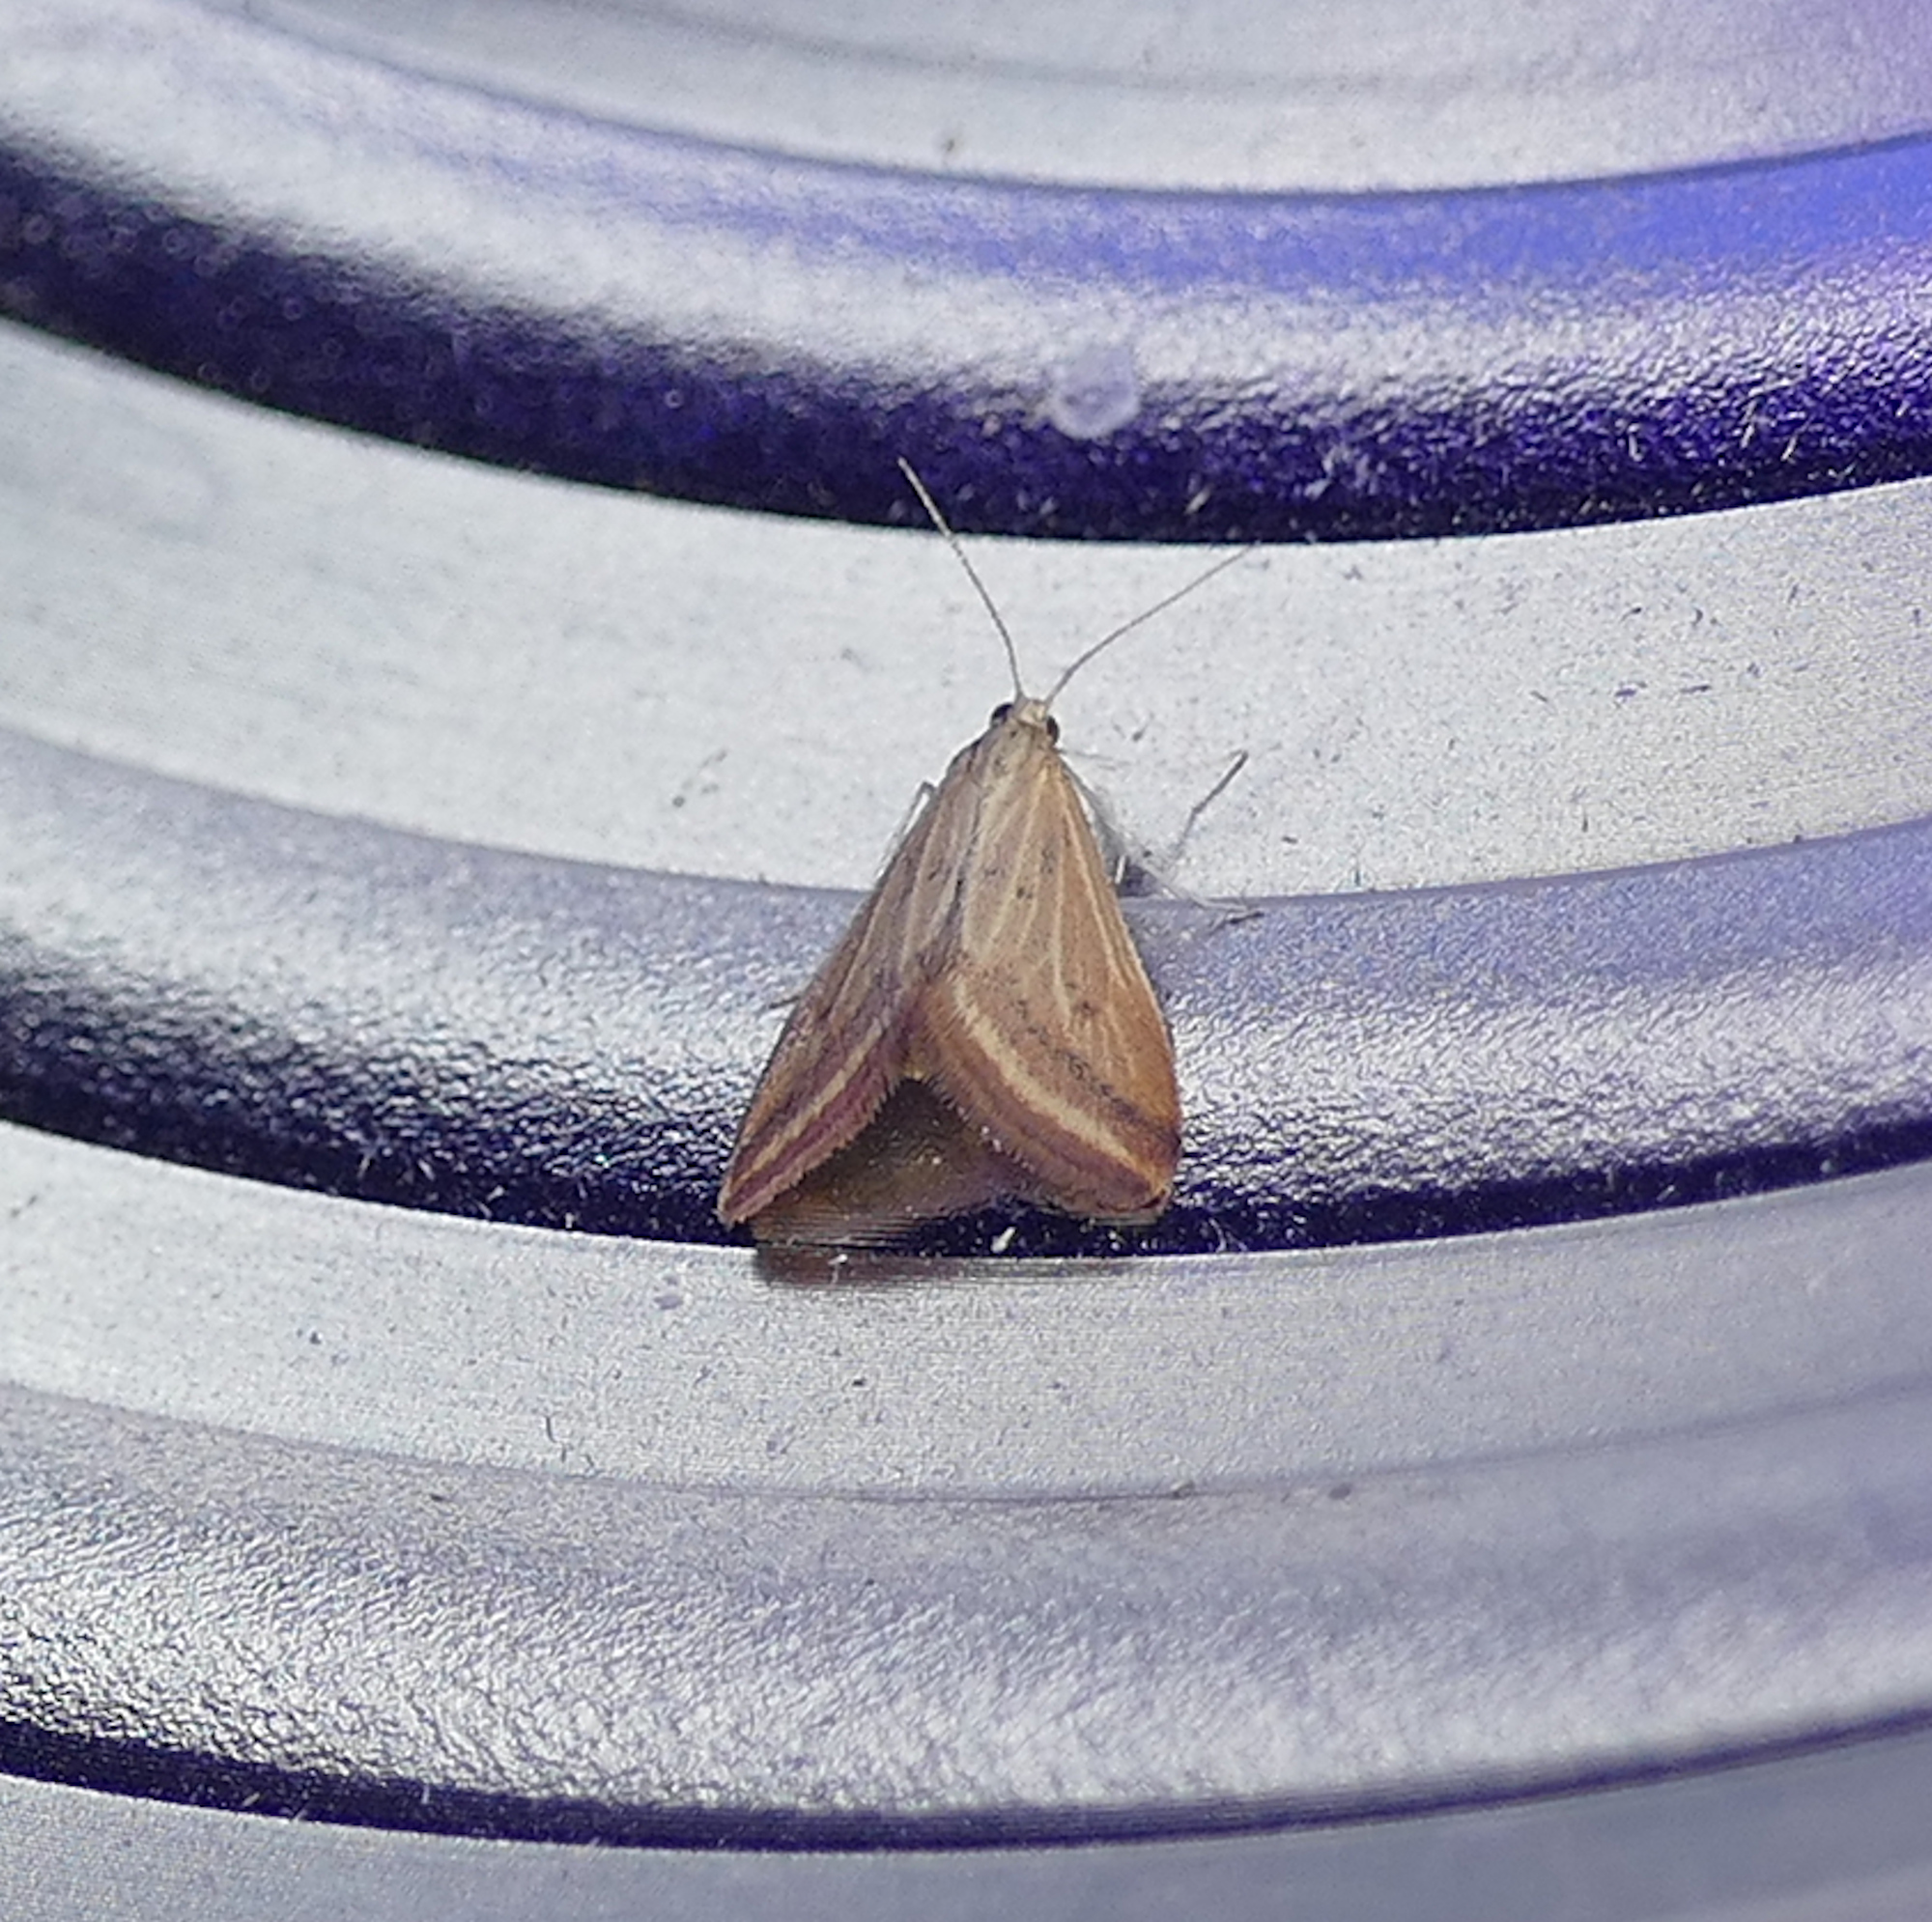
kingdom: Animalia
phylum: Arthropoda
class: Insecta
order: Lepidoptera
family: Crambidae
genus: Microtheoris
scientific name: Microtheoris ophionalis
